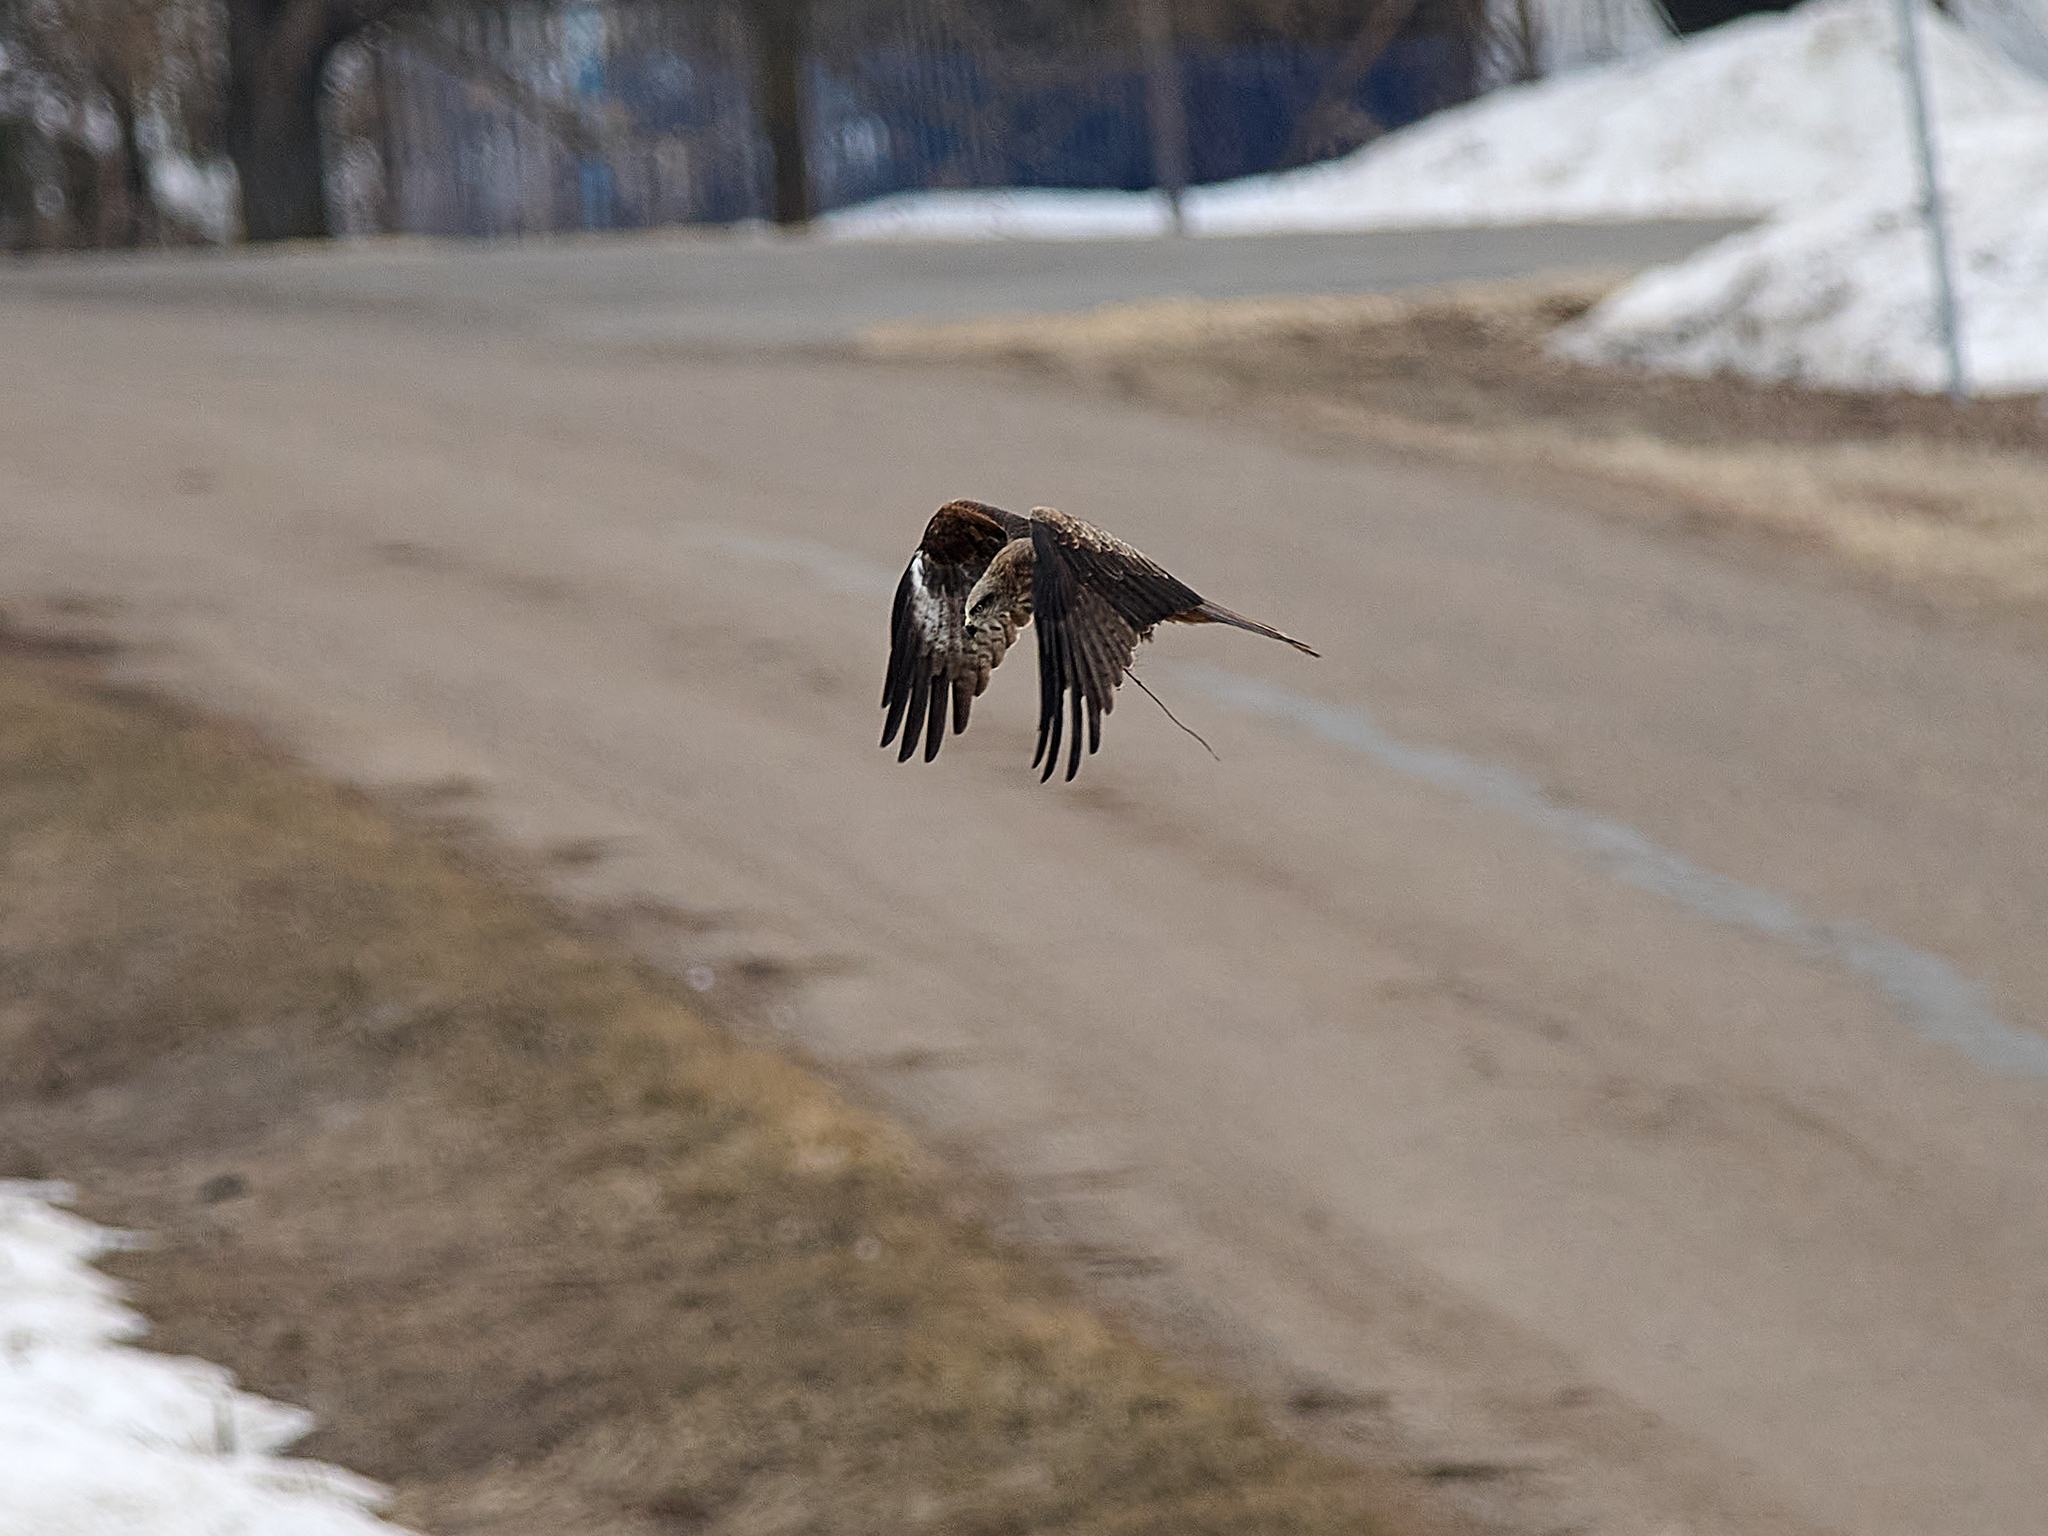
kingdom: Animalia
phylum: Chordata
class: Aves
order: Accipitriformes
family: Accipitridae
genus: Milvus
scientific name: Milvus migrans
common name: Black kite
